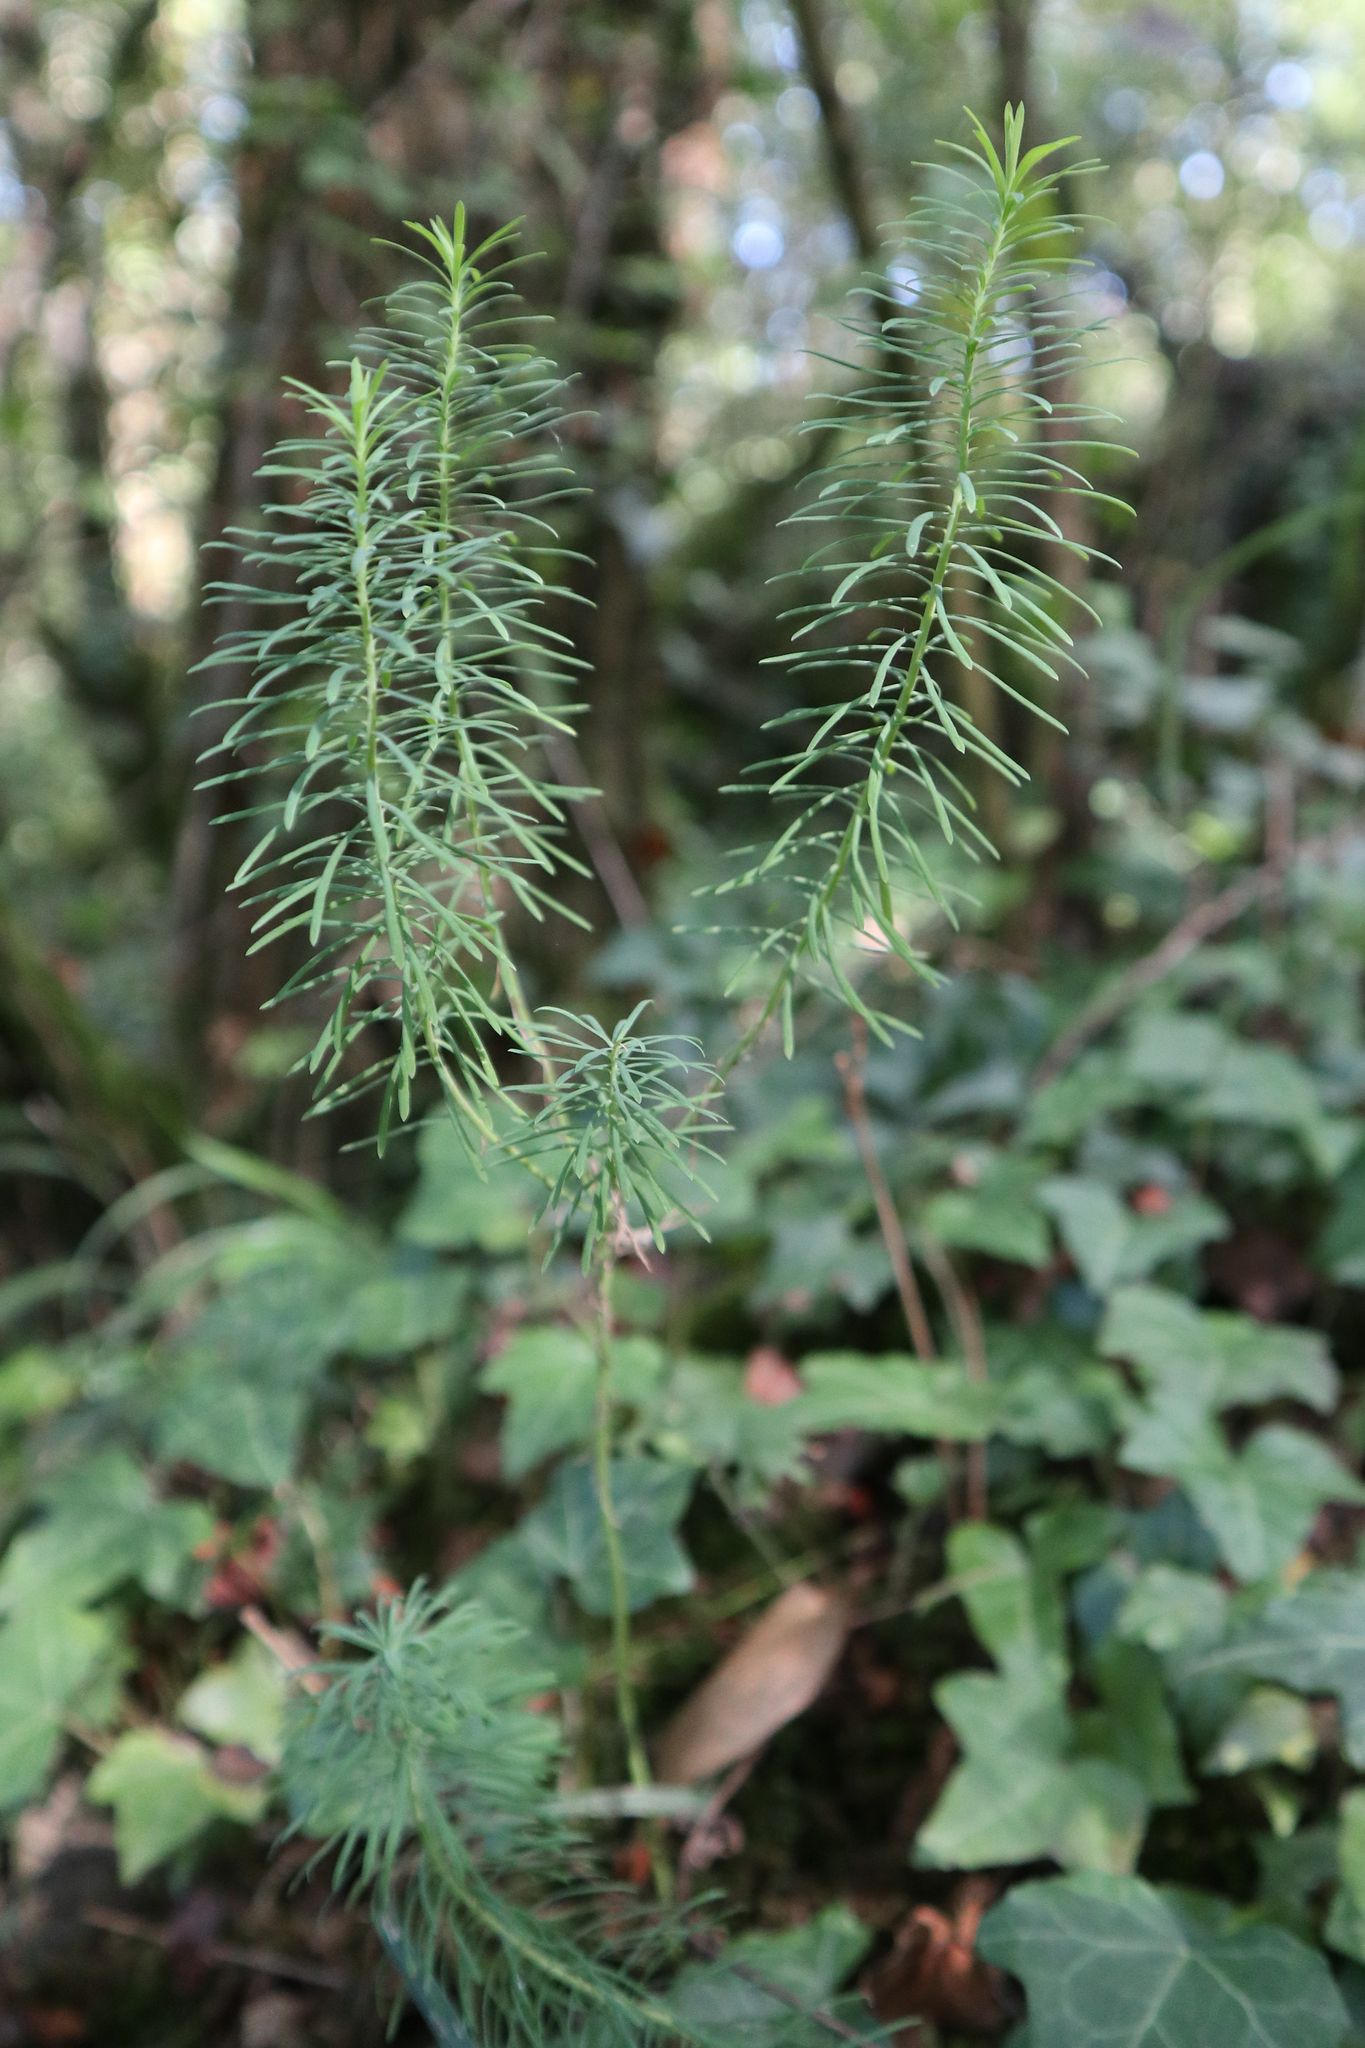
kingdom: Plantae
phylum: Tracheophyta
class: Magnoliopsida
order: Malpighiales
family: Euphorbiaceae
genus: Euphorbia
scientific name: Euphorbia cyparissias
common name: Cypress spurge
